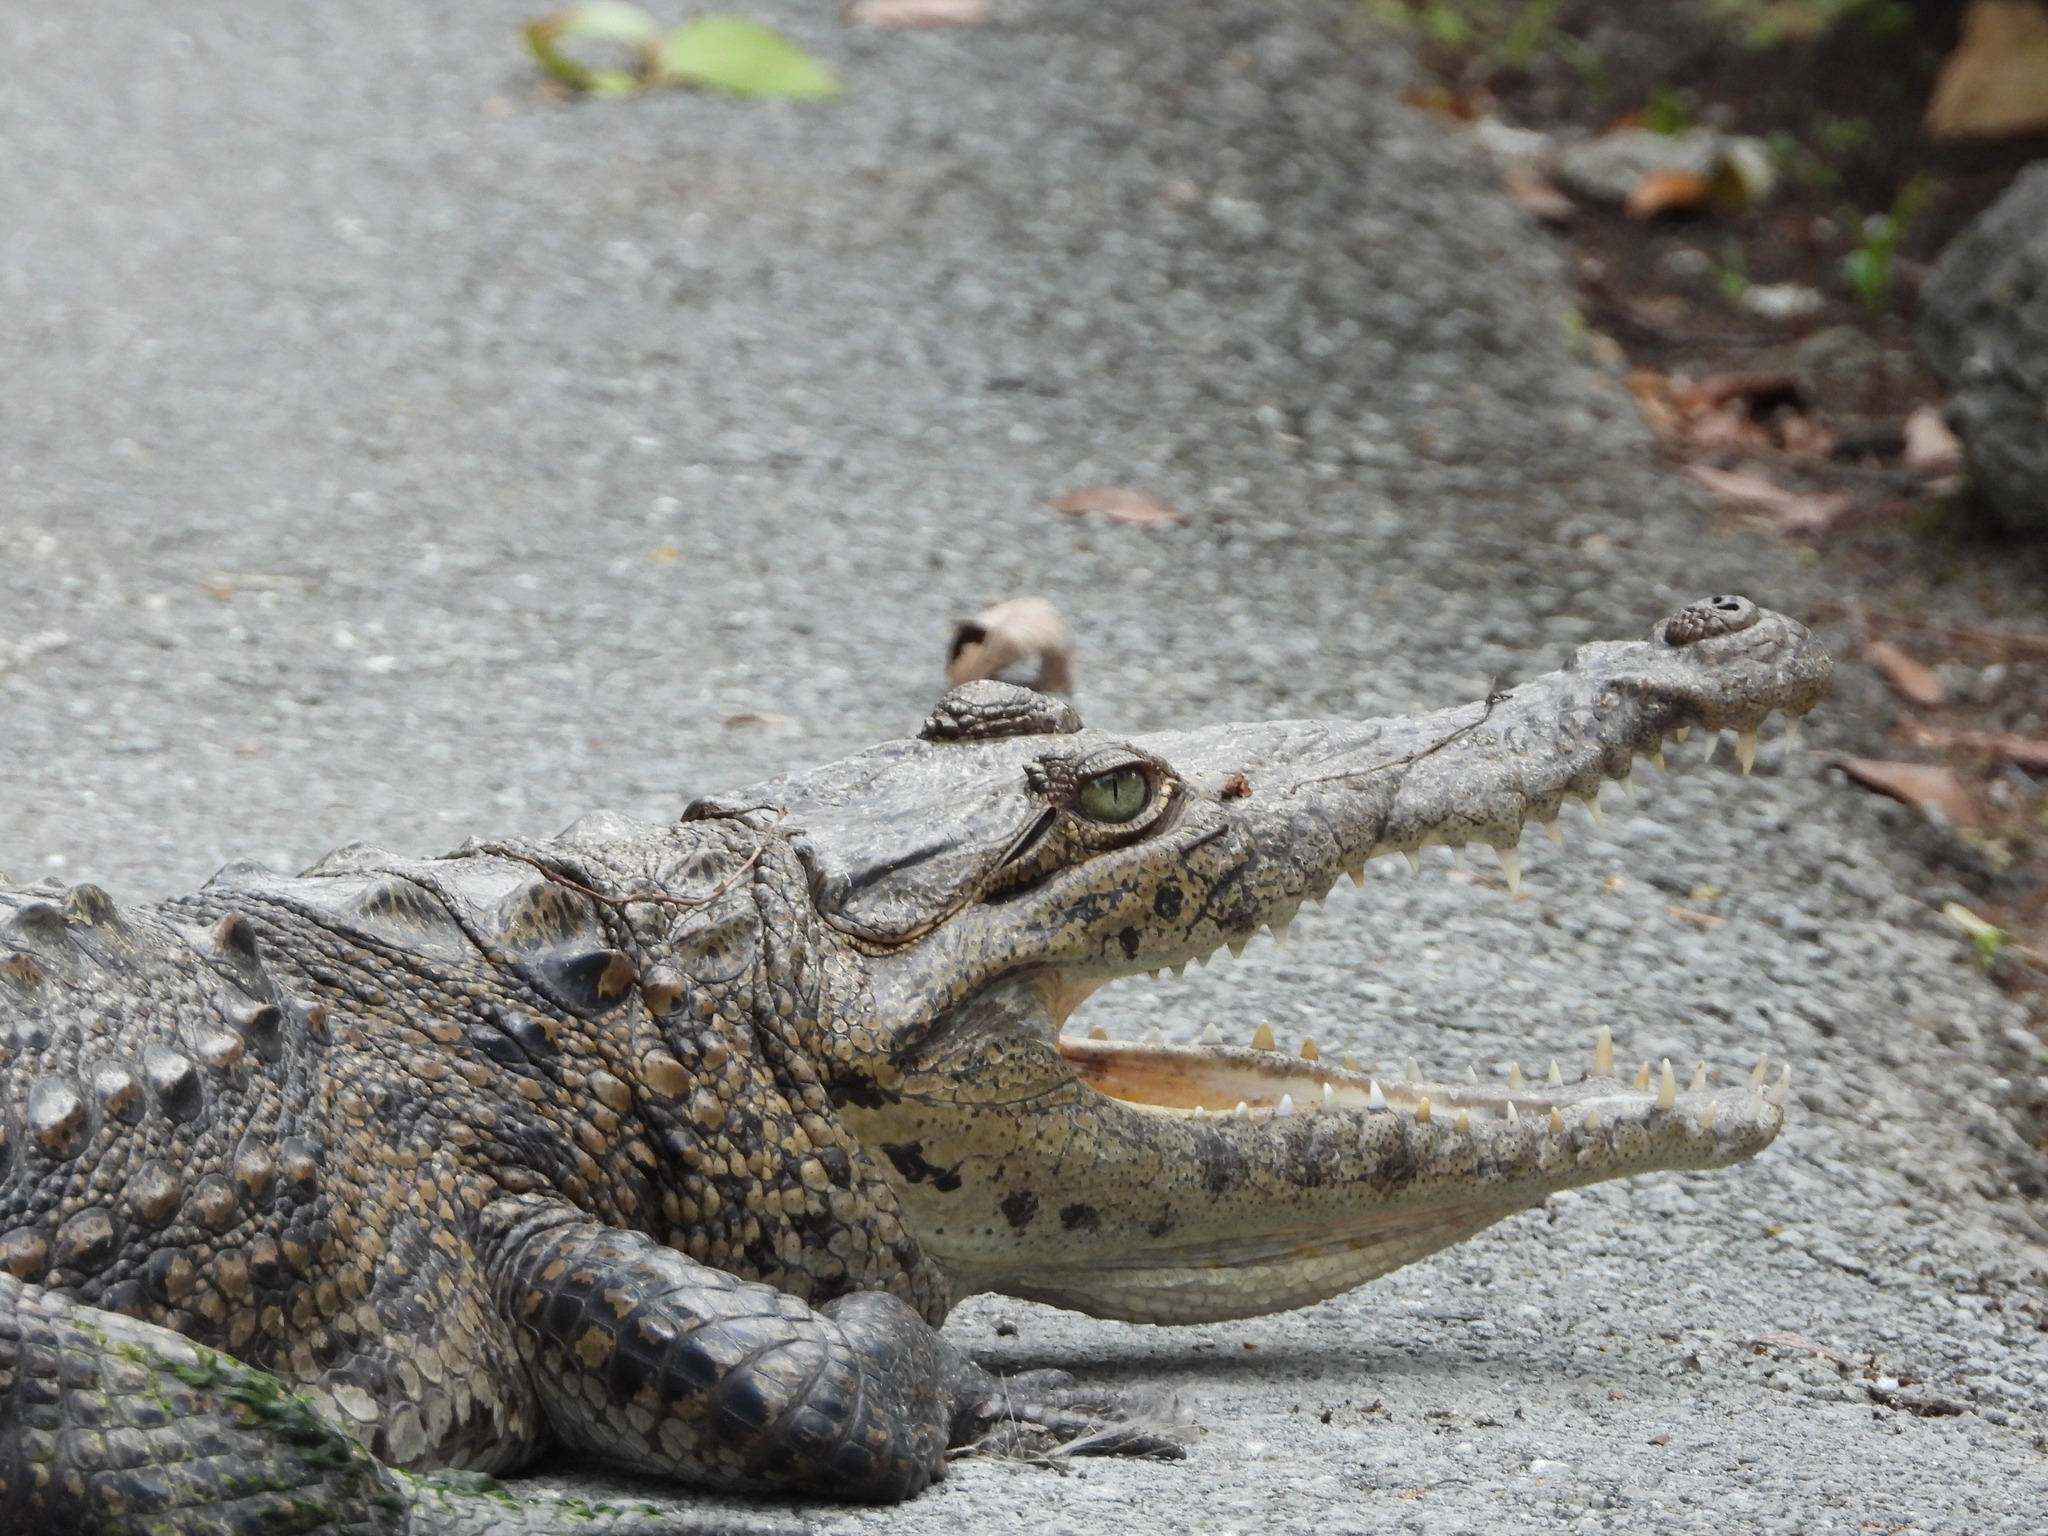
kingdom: Animalia
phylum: Chordata
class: Crocodylia
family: Crocodylidae
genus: Crocodylus
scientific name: Crocodylus acutus
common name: American crocodile
